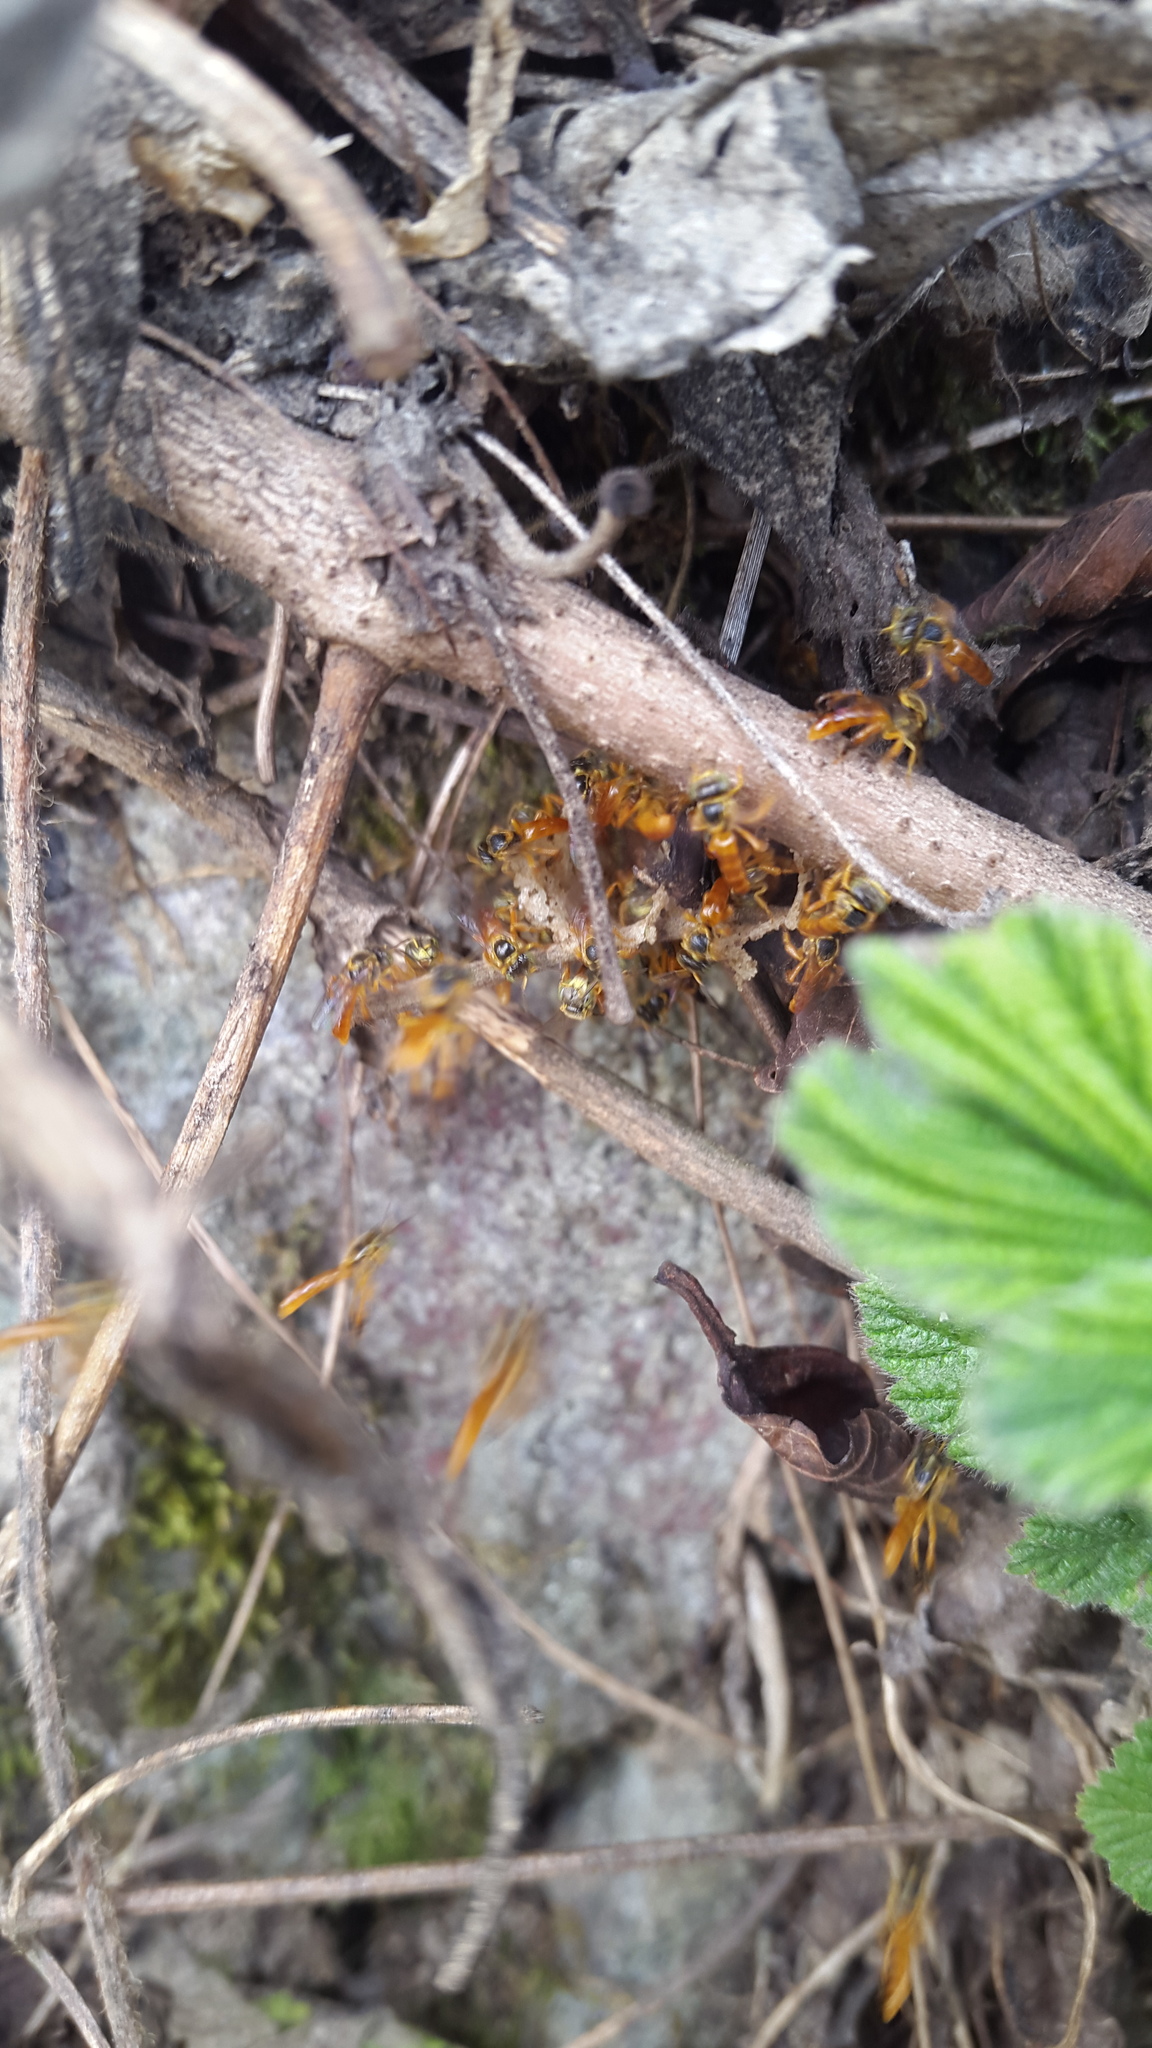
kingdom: Animalia
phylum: Arthropoda
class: Insecta
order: Hymenoptera
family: Apidae
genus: Tetragonisca
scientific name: Tetragonisca angustula
